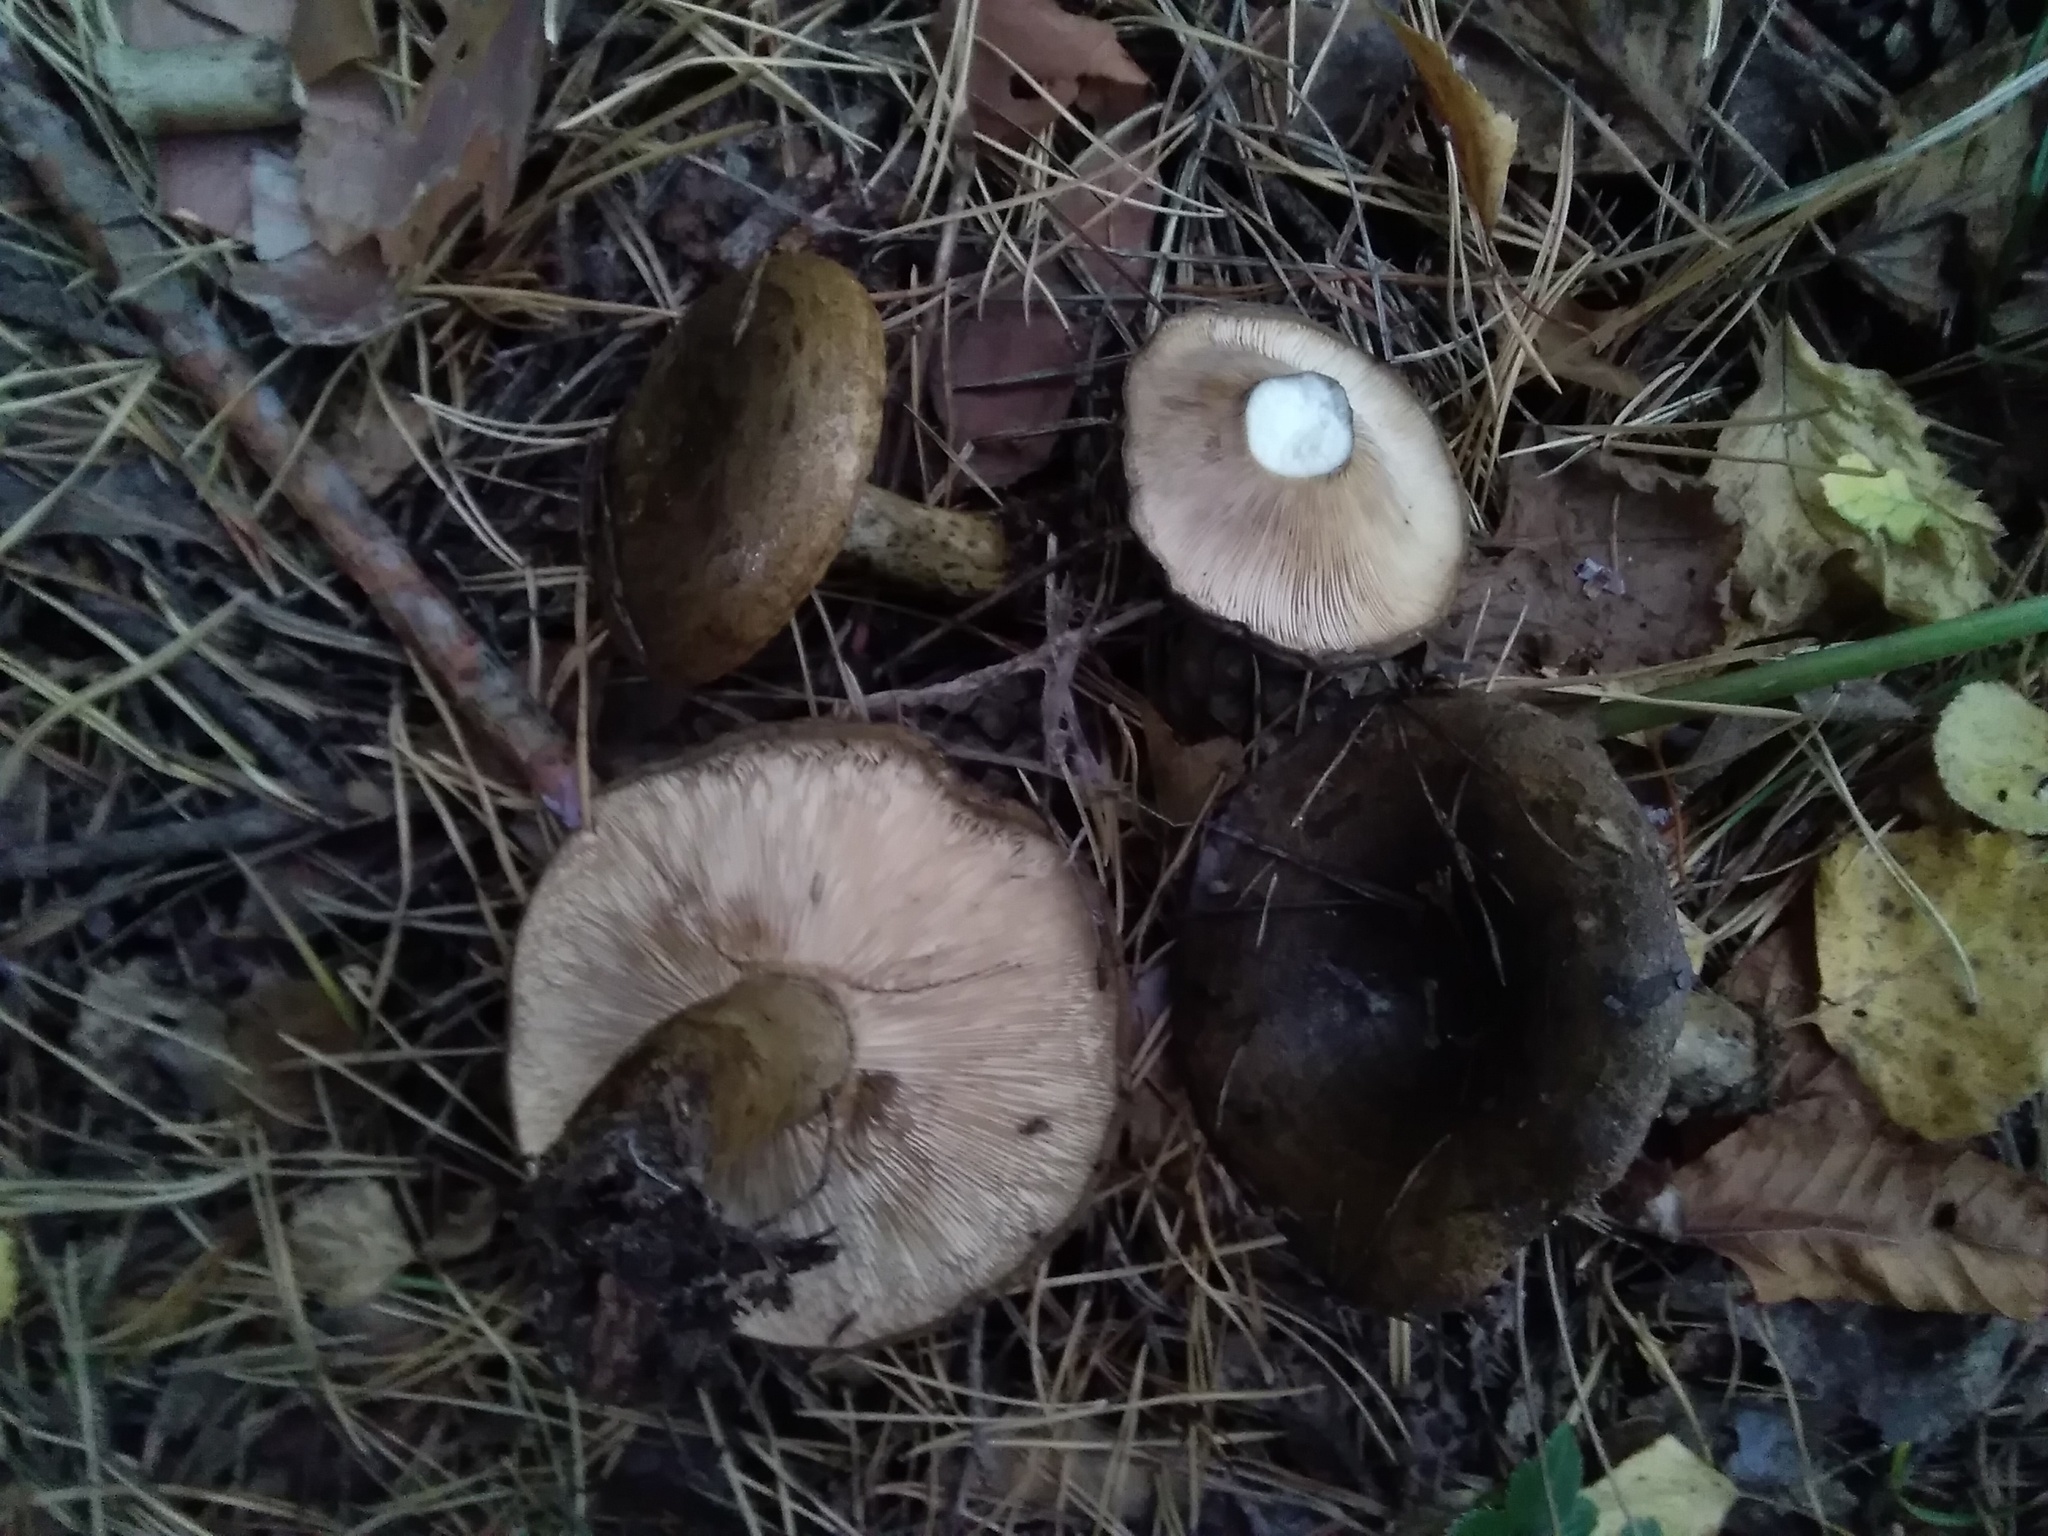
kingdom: Fungi
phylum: Basidiomycota
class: Agaricomycetes
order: Russulales
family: Russulaceae
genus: Lactarius
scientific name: Lactarius turpis
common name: Ugly milk-cap
